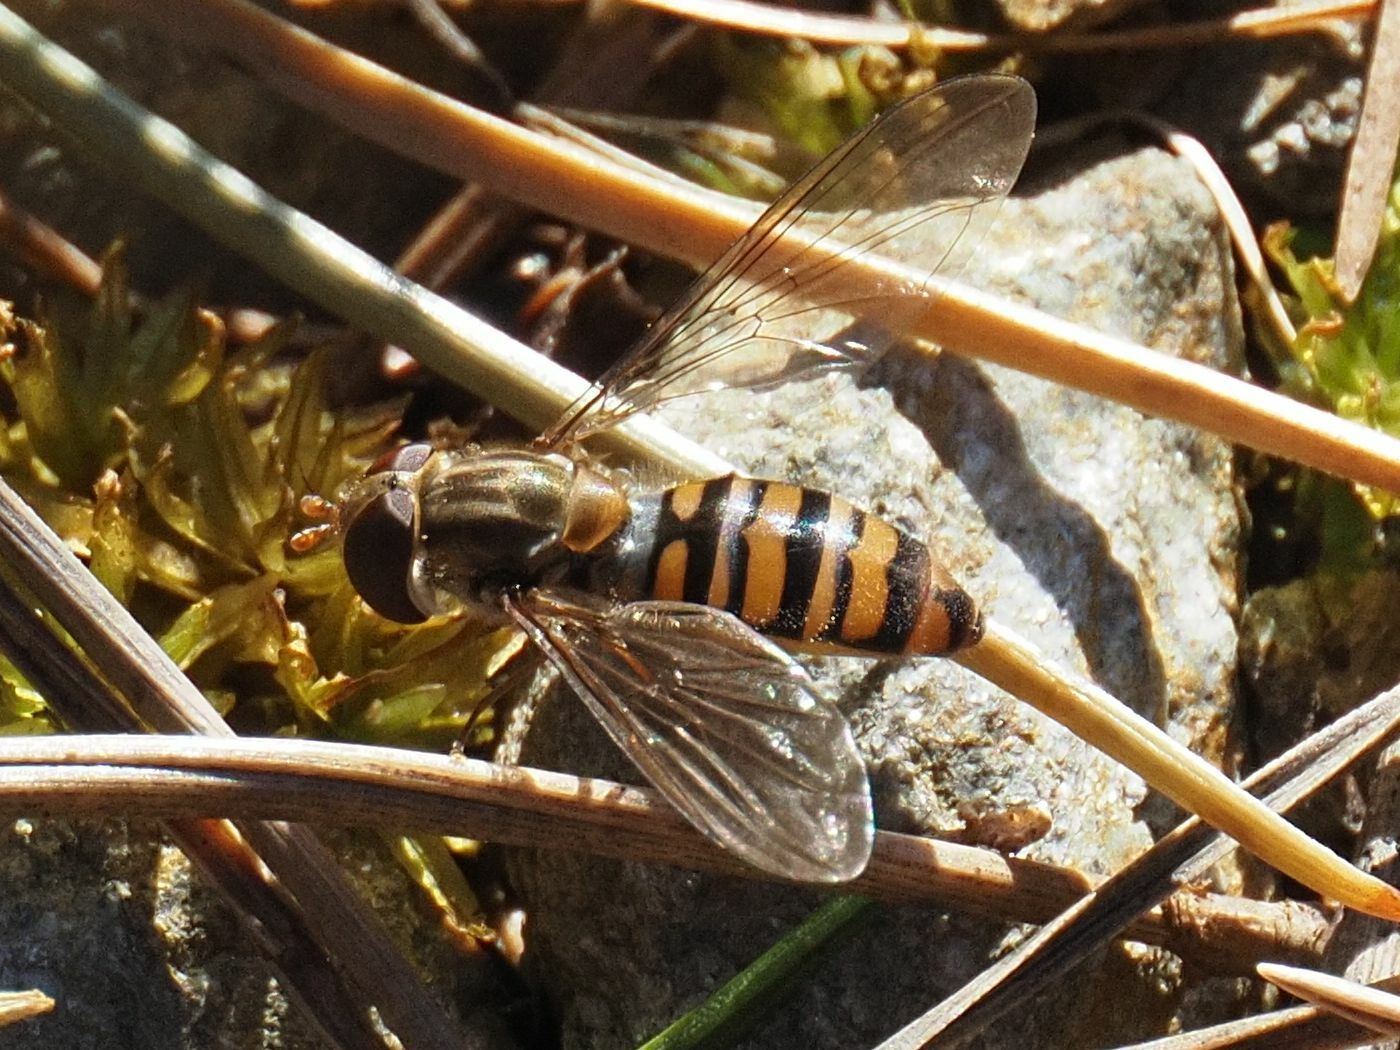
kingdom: Animalia
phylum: Arthropoda
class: Insecta
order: Diptera
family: Syrphidae
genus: Episyrphus
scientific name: Episyrphus balteatus
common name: Marmalade hoverfly
